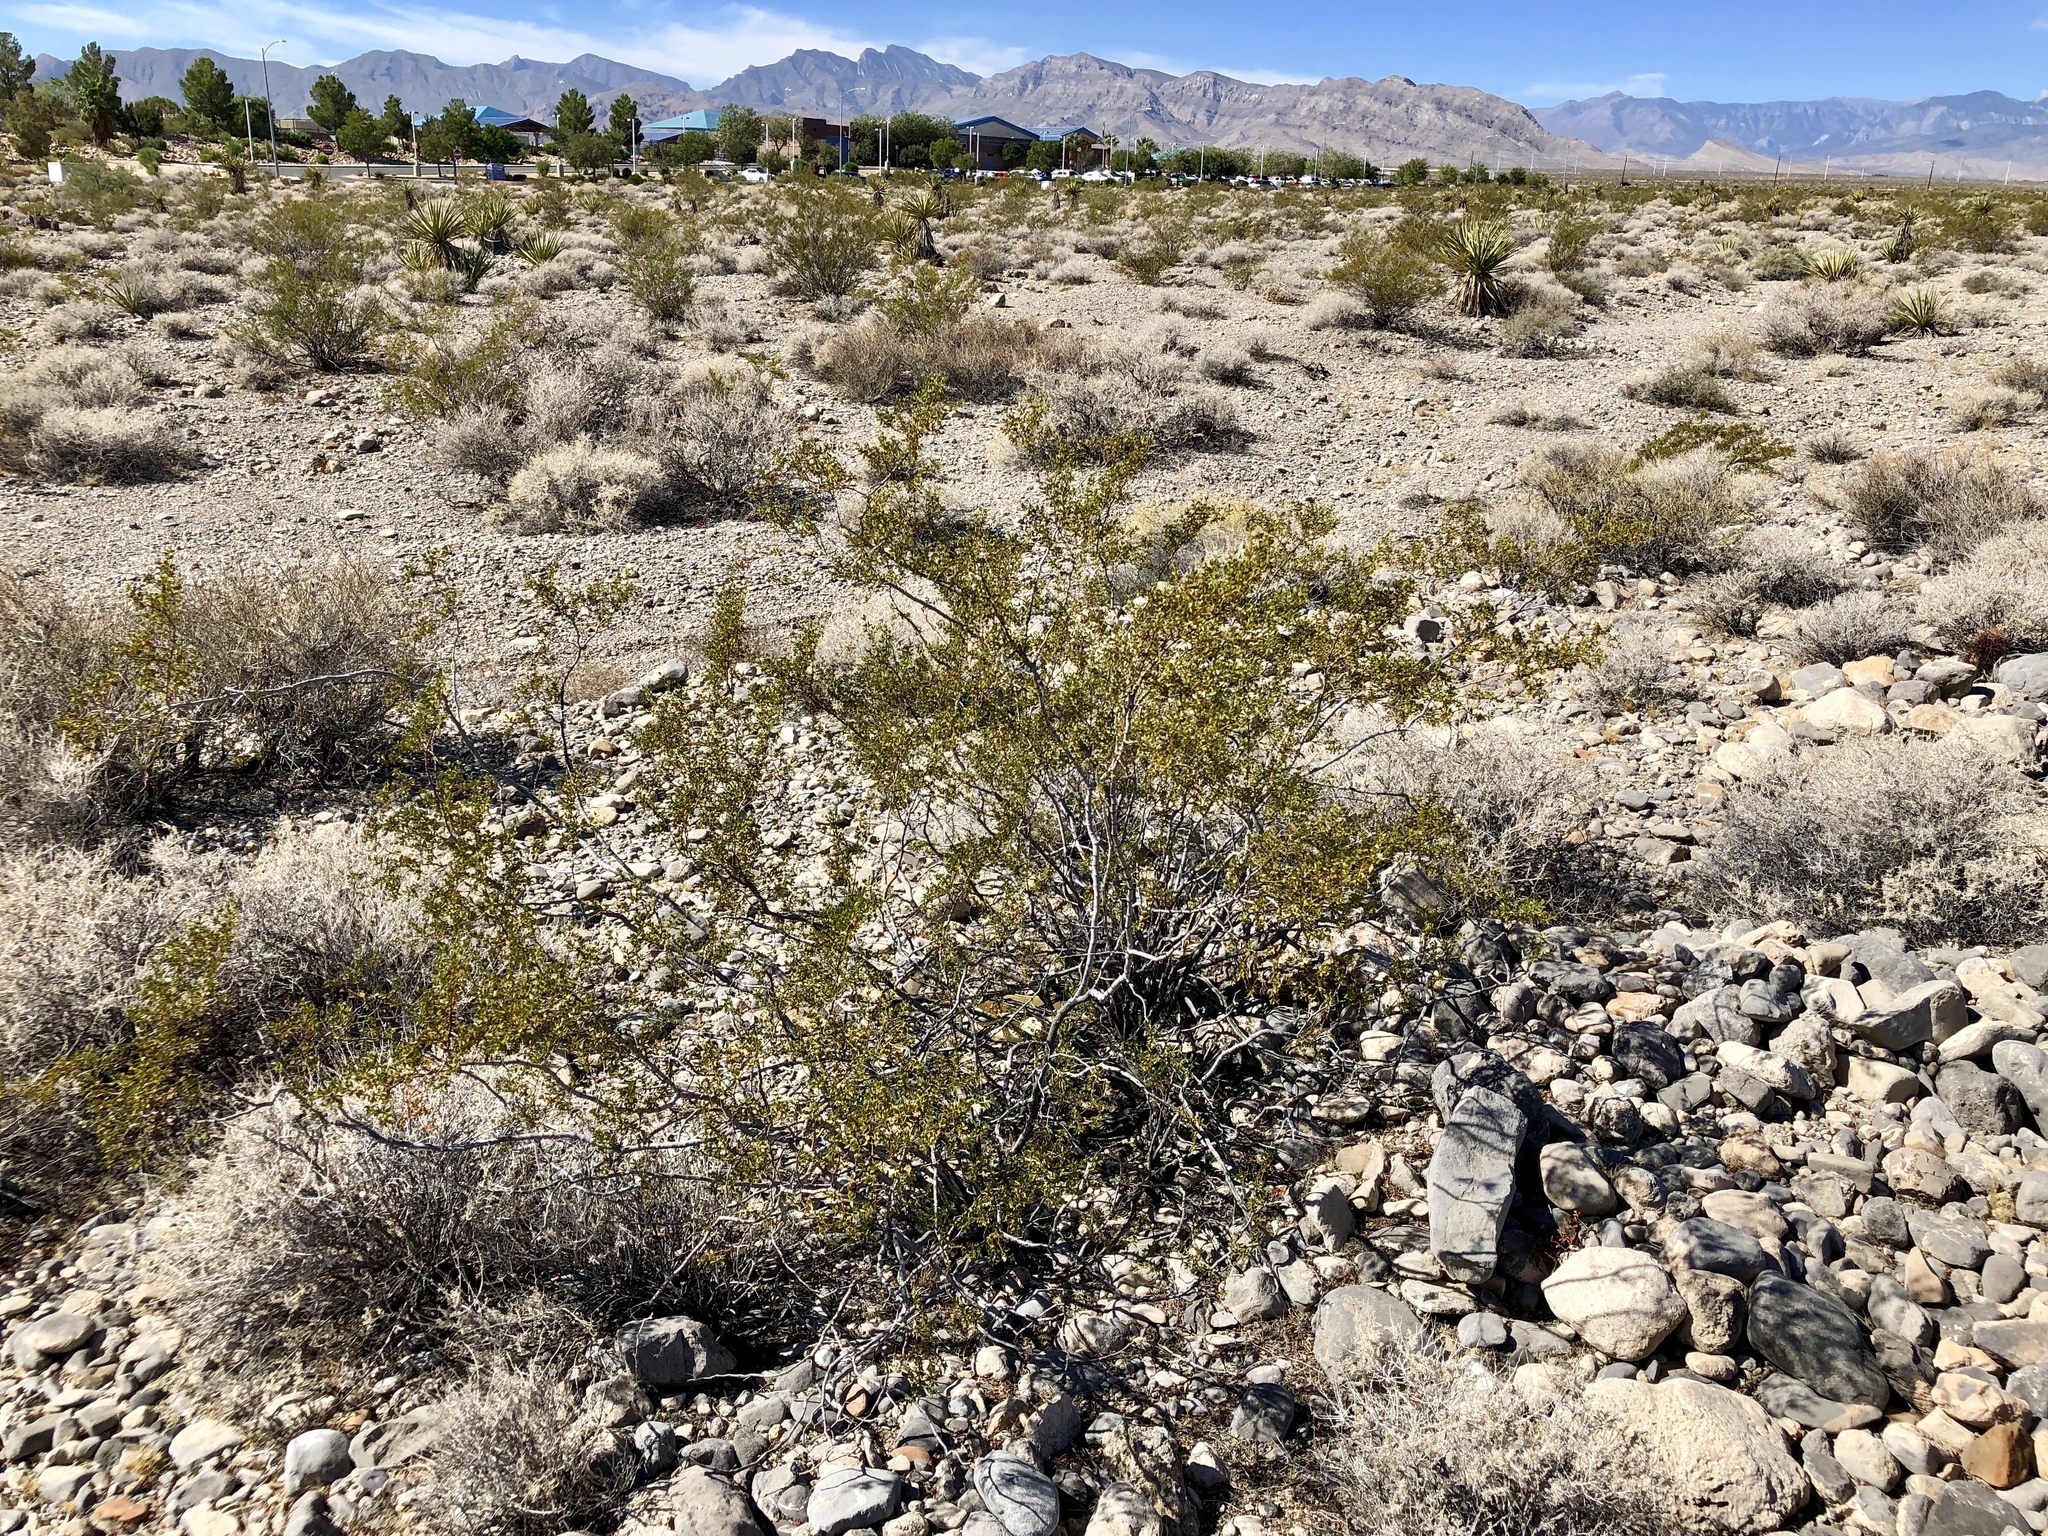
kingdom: Plantae
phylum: Tracheophyta
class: Magnoliopsida
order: Zygophyllales
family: Zygophyllaceae
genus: Larrea
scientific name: Larrea tridentata
